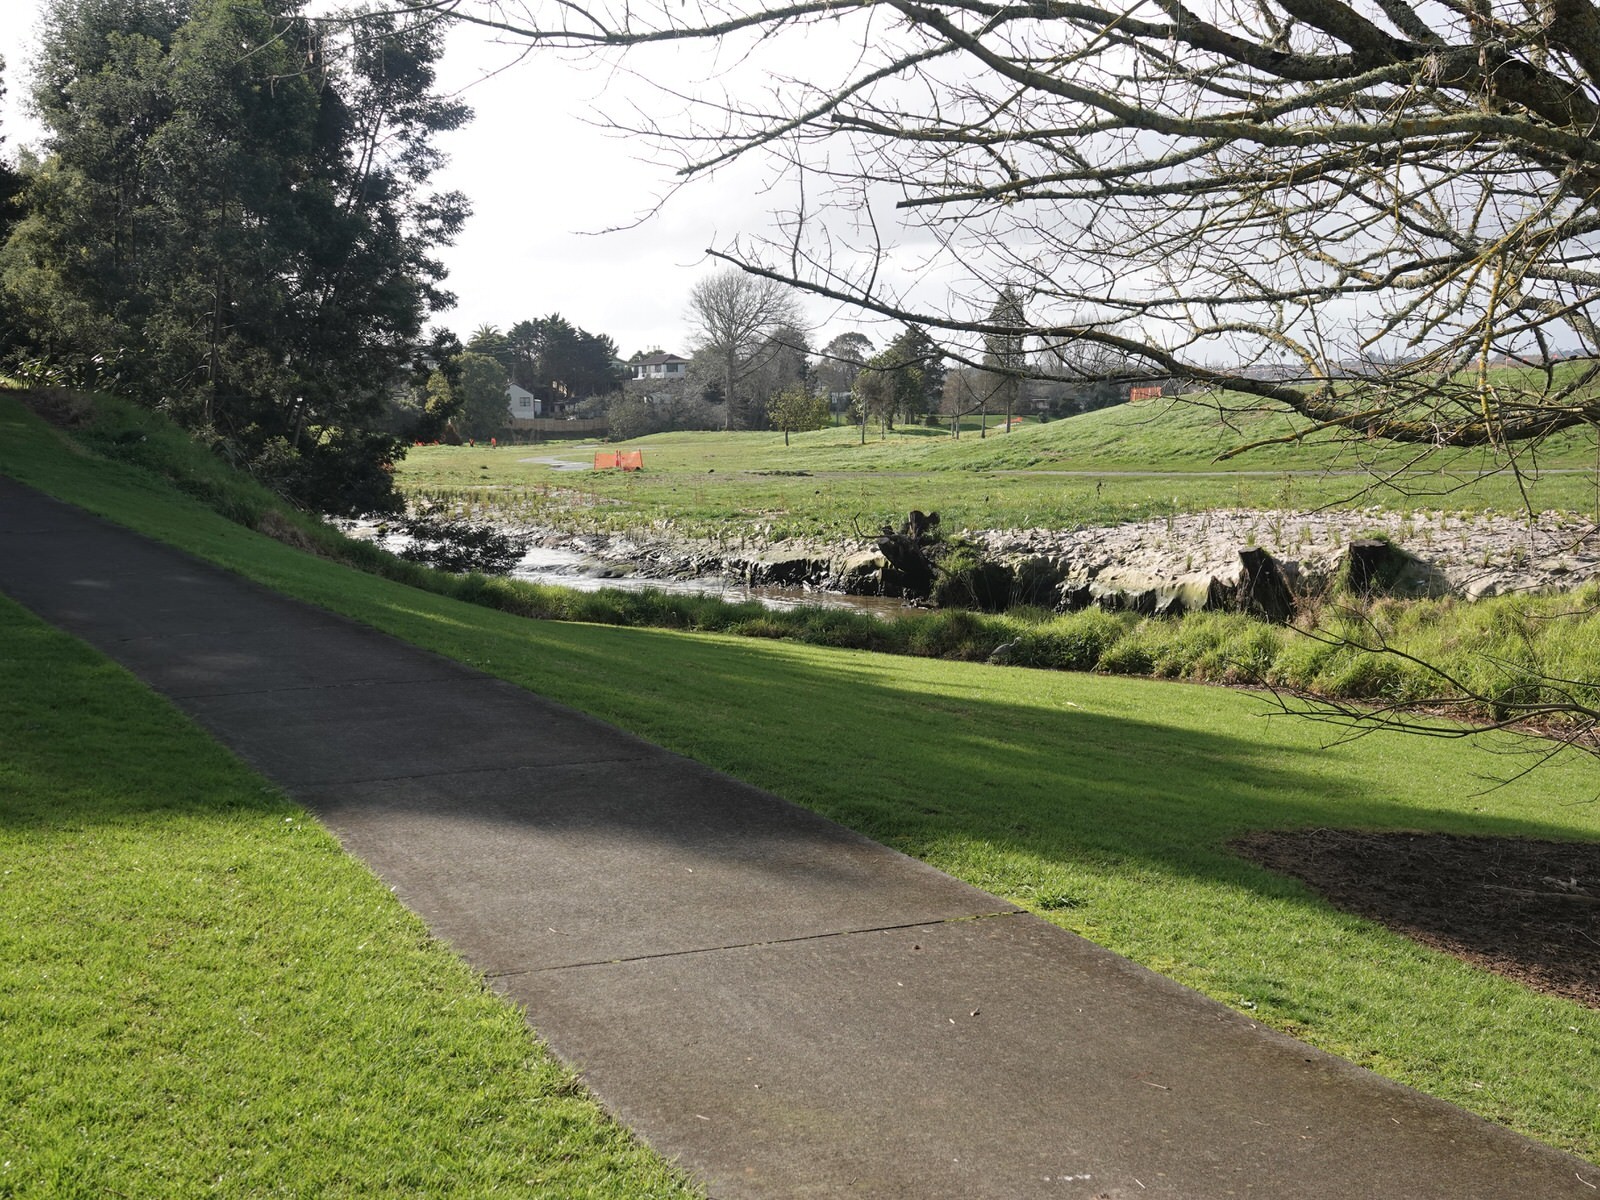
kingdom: Animalia
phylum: Chordata
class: Aves
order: Pelecaniformes
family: Ardeidae
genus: Egretta
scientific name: Egretta novaehollandiae
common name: White-faced heron
